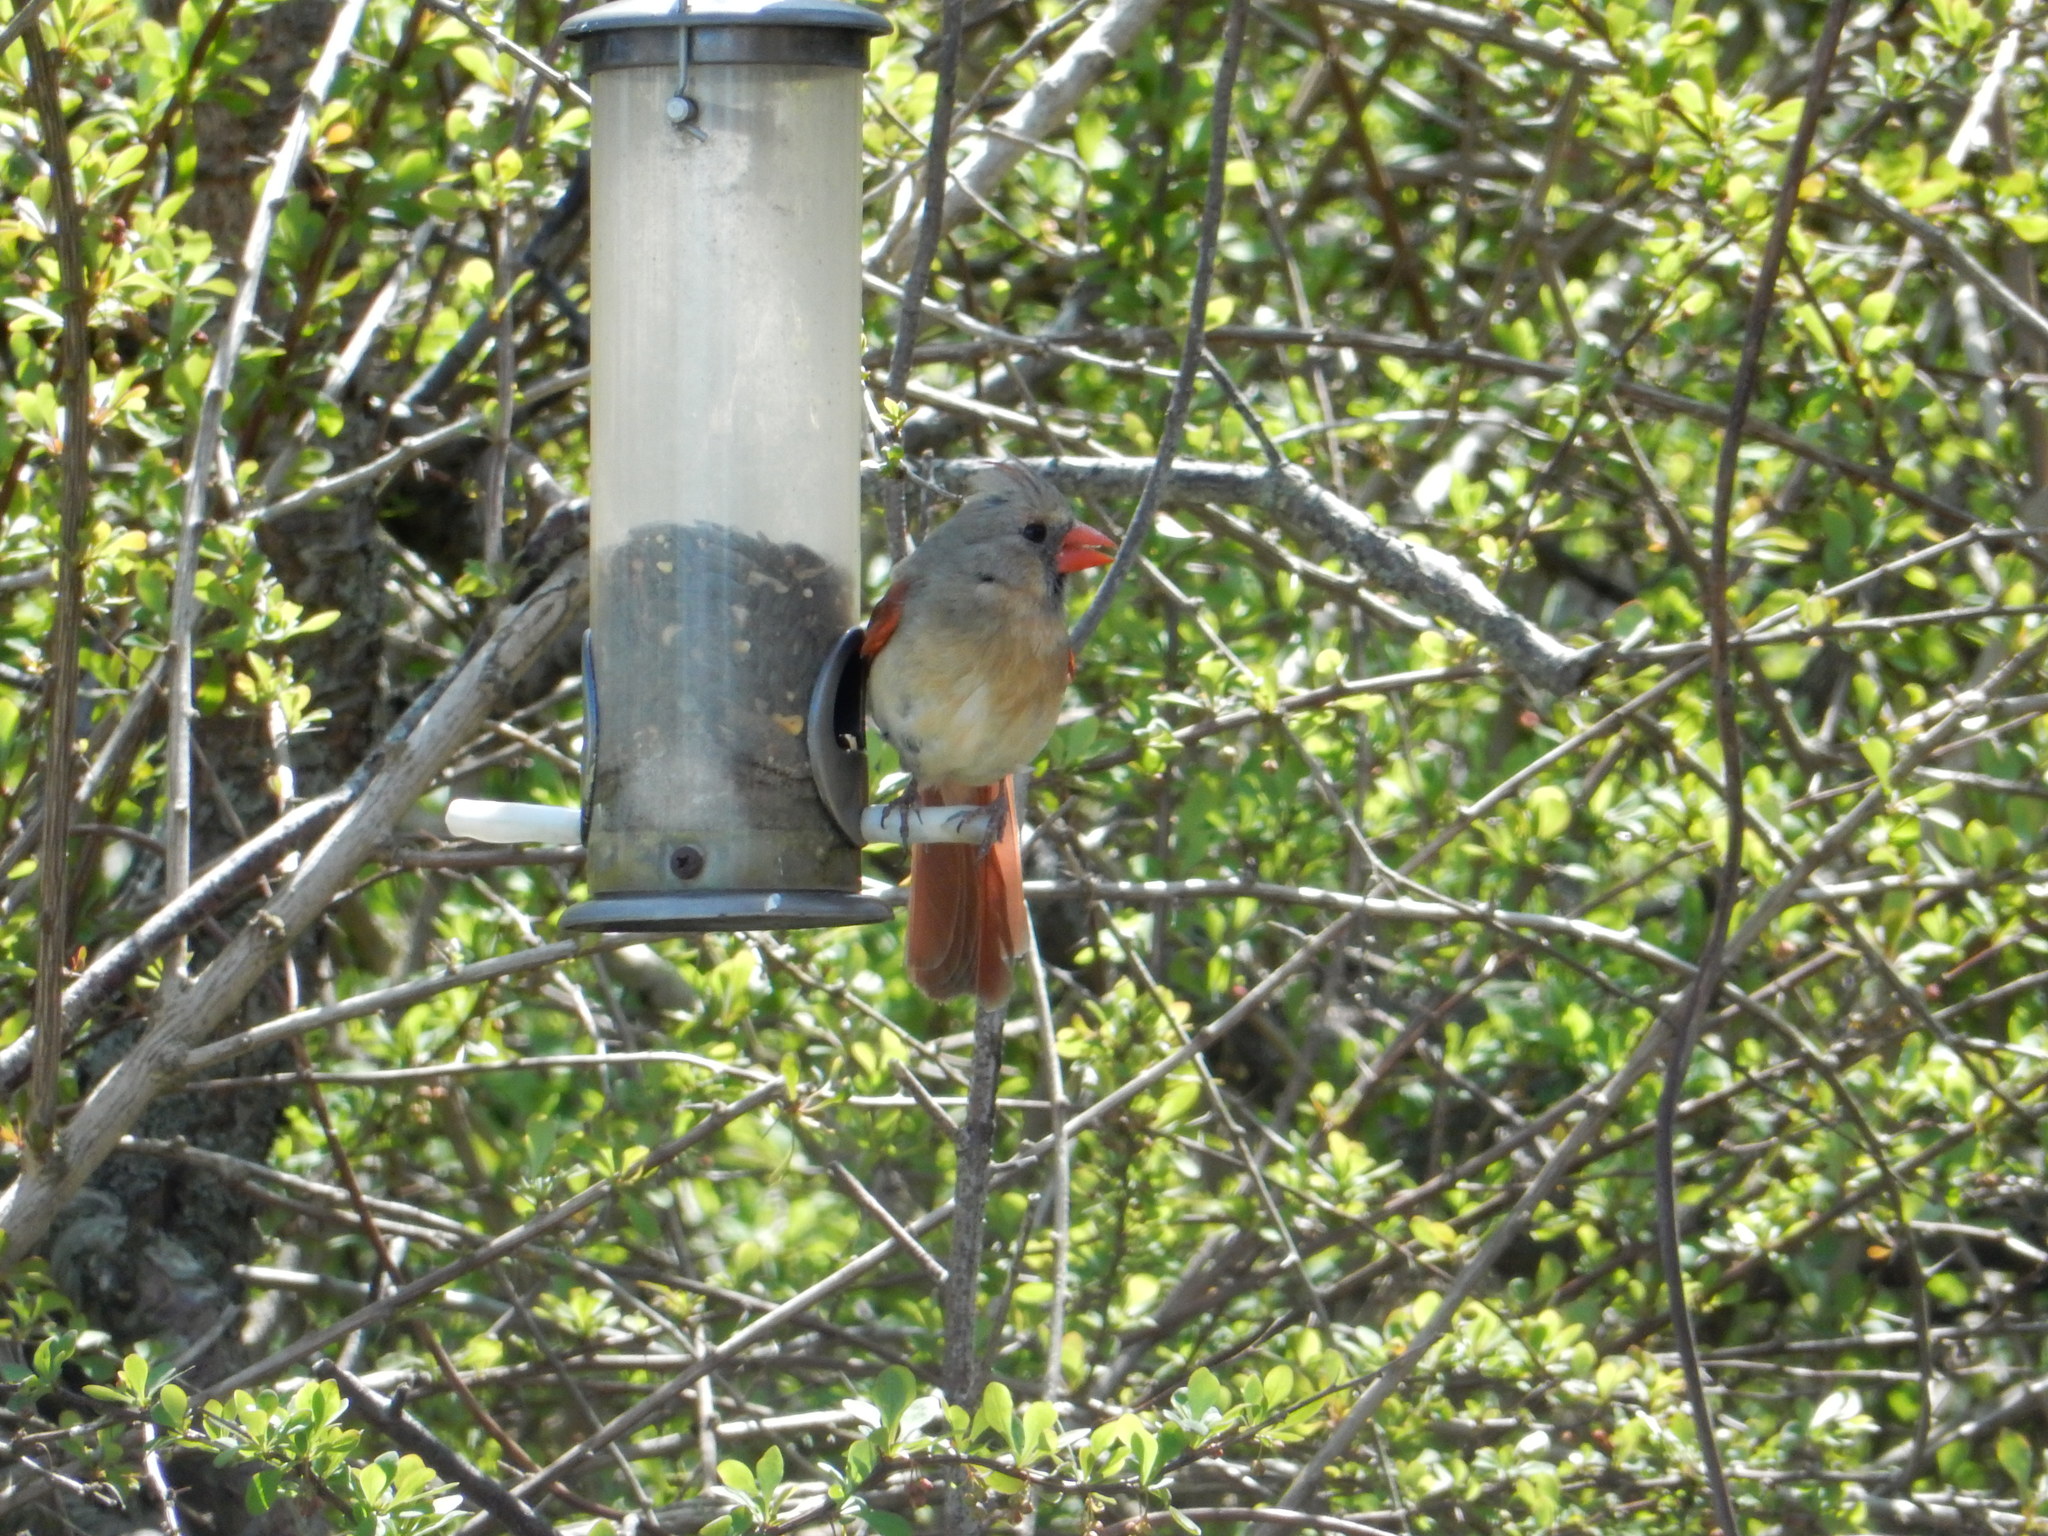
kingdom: Animalia
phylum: Chordata
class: Aves
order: Passeriformes
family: Cardinalidae
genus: Cardinalis
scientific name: Cardinalis cardinalis
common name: Northern cardinal
